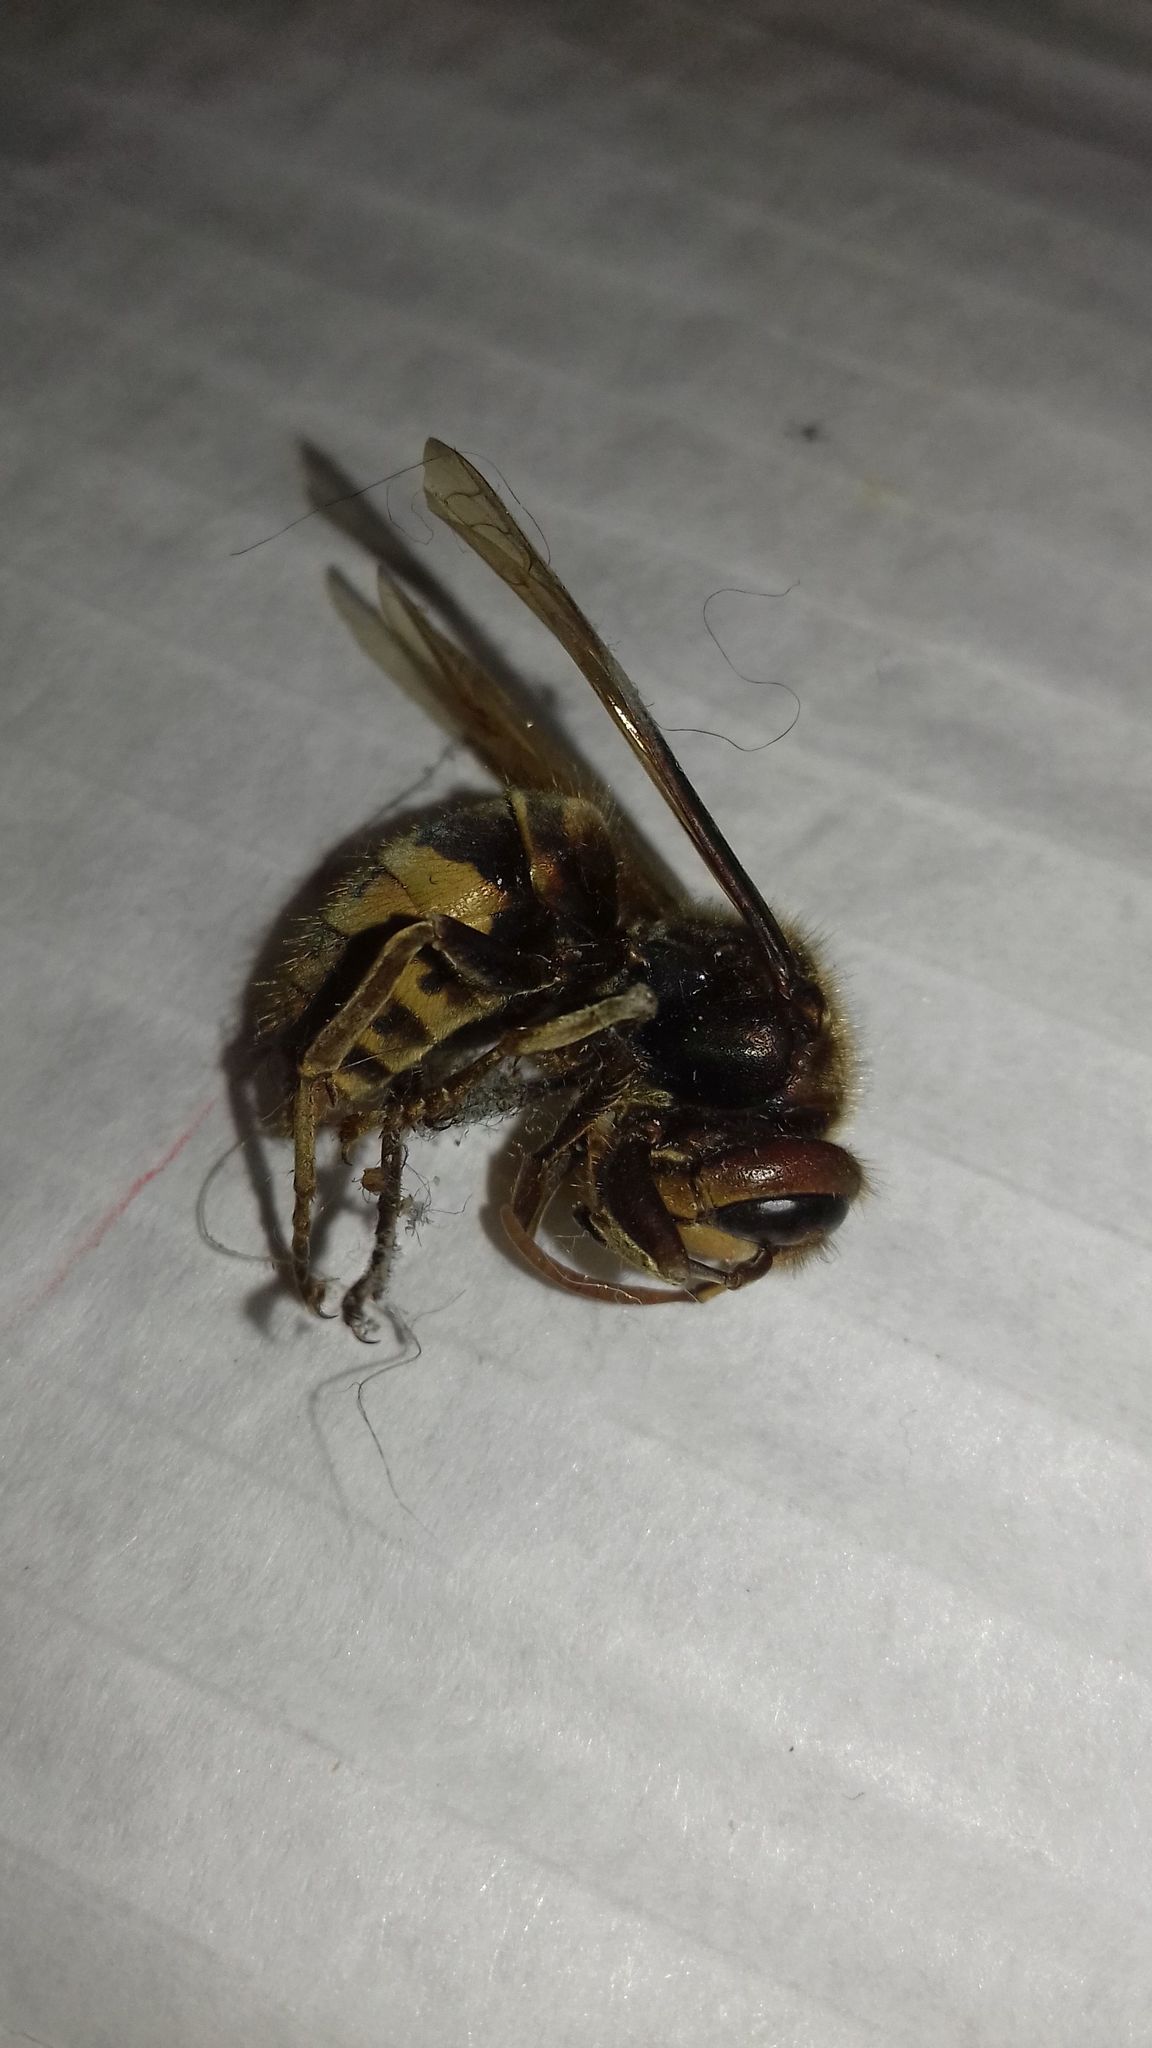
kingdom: Animalia
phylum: Arthropoda
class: Insecta
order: Hymenoptera
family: Vespidae
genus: Vespa
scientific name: Vespa crabro
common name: Hornet
